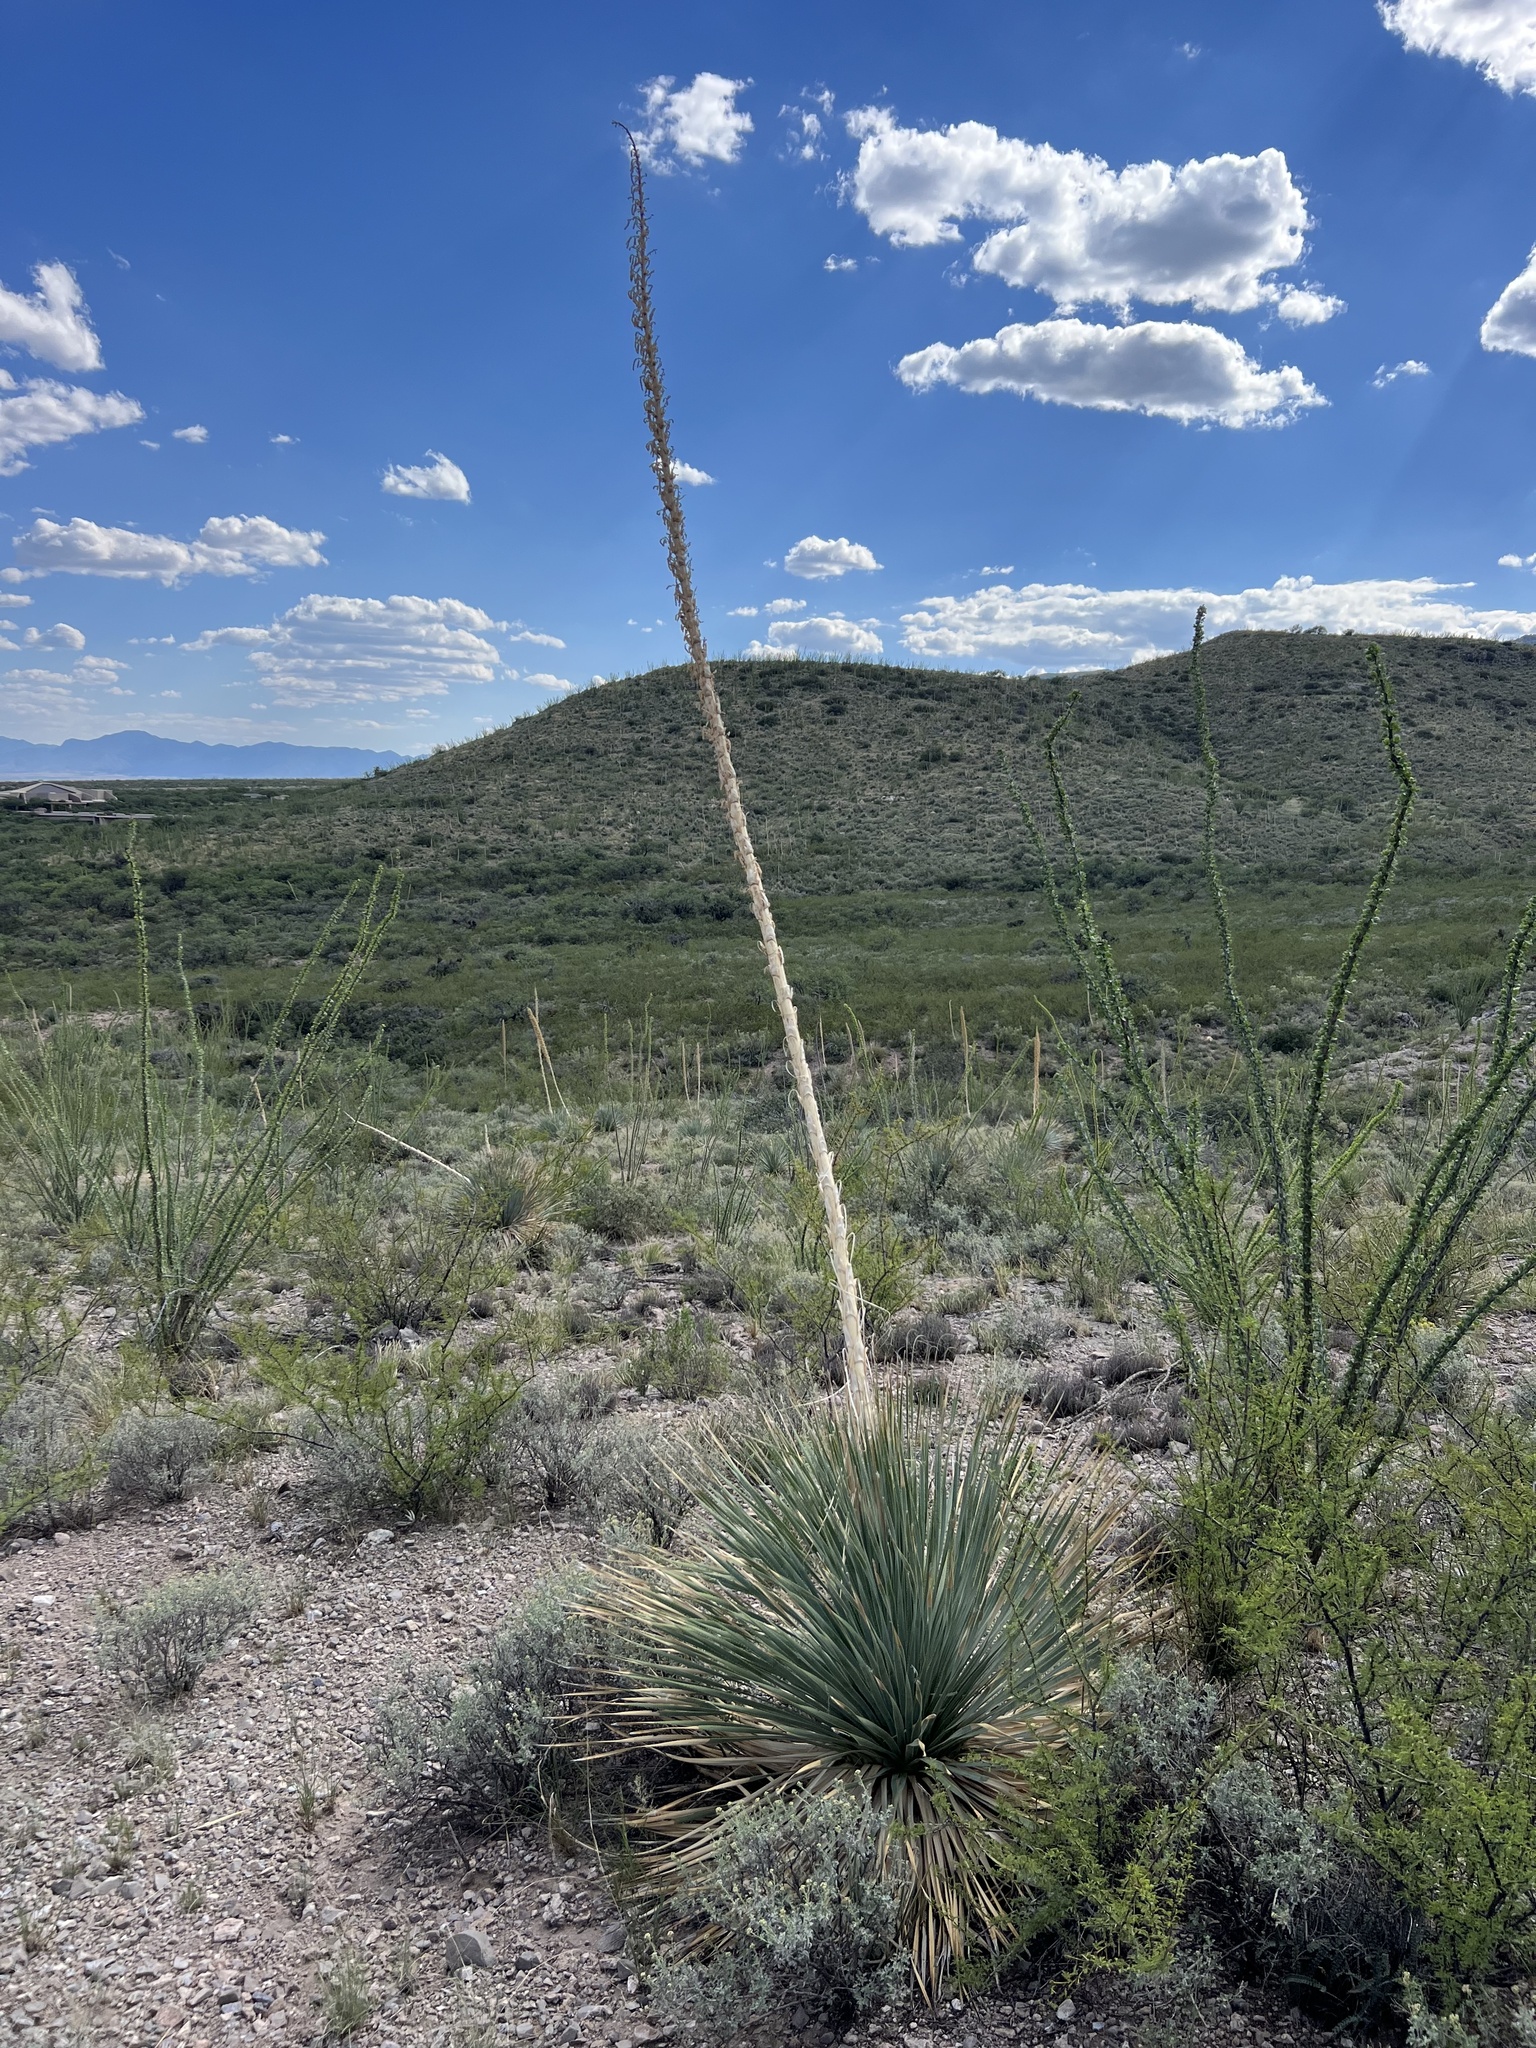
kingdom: Plantae
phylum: Tracheophyta
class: Liliopsida
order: Asparagales
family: Asparagaceae
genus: Dasylirion
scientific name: Dasylirion wheeleri
